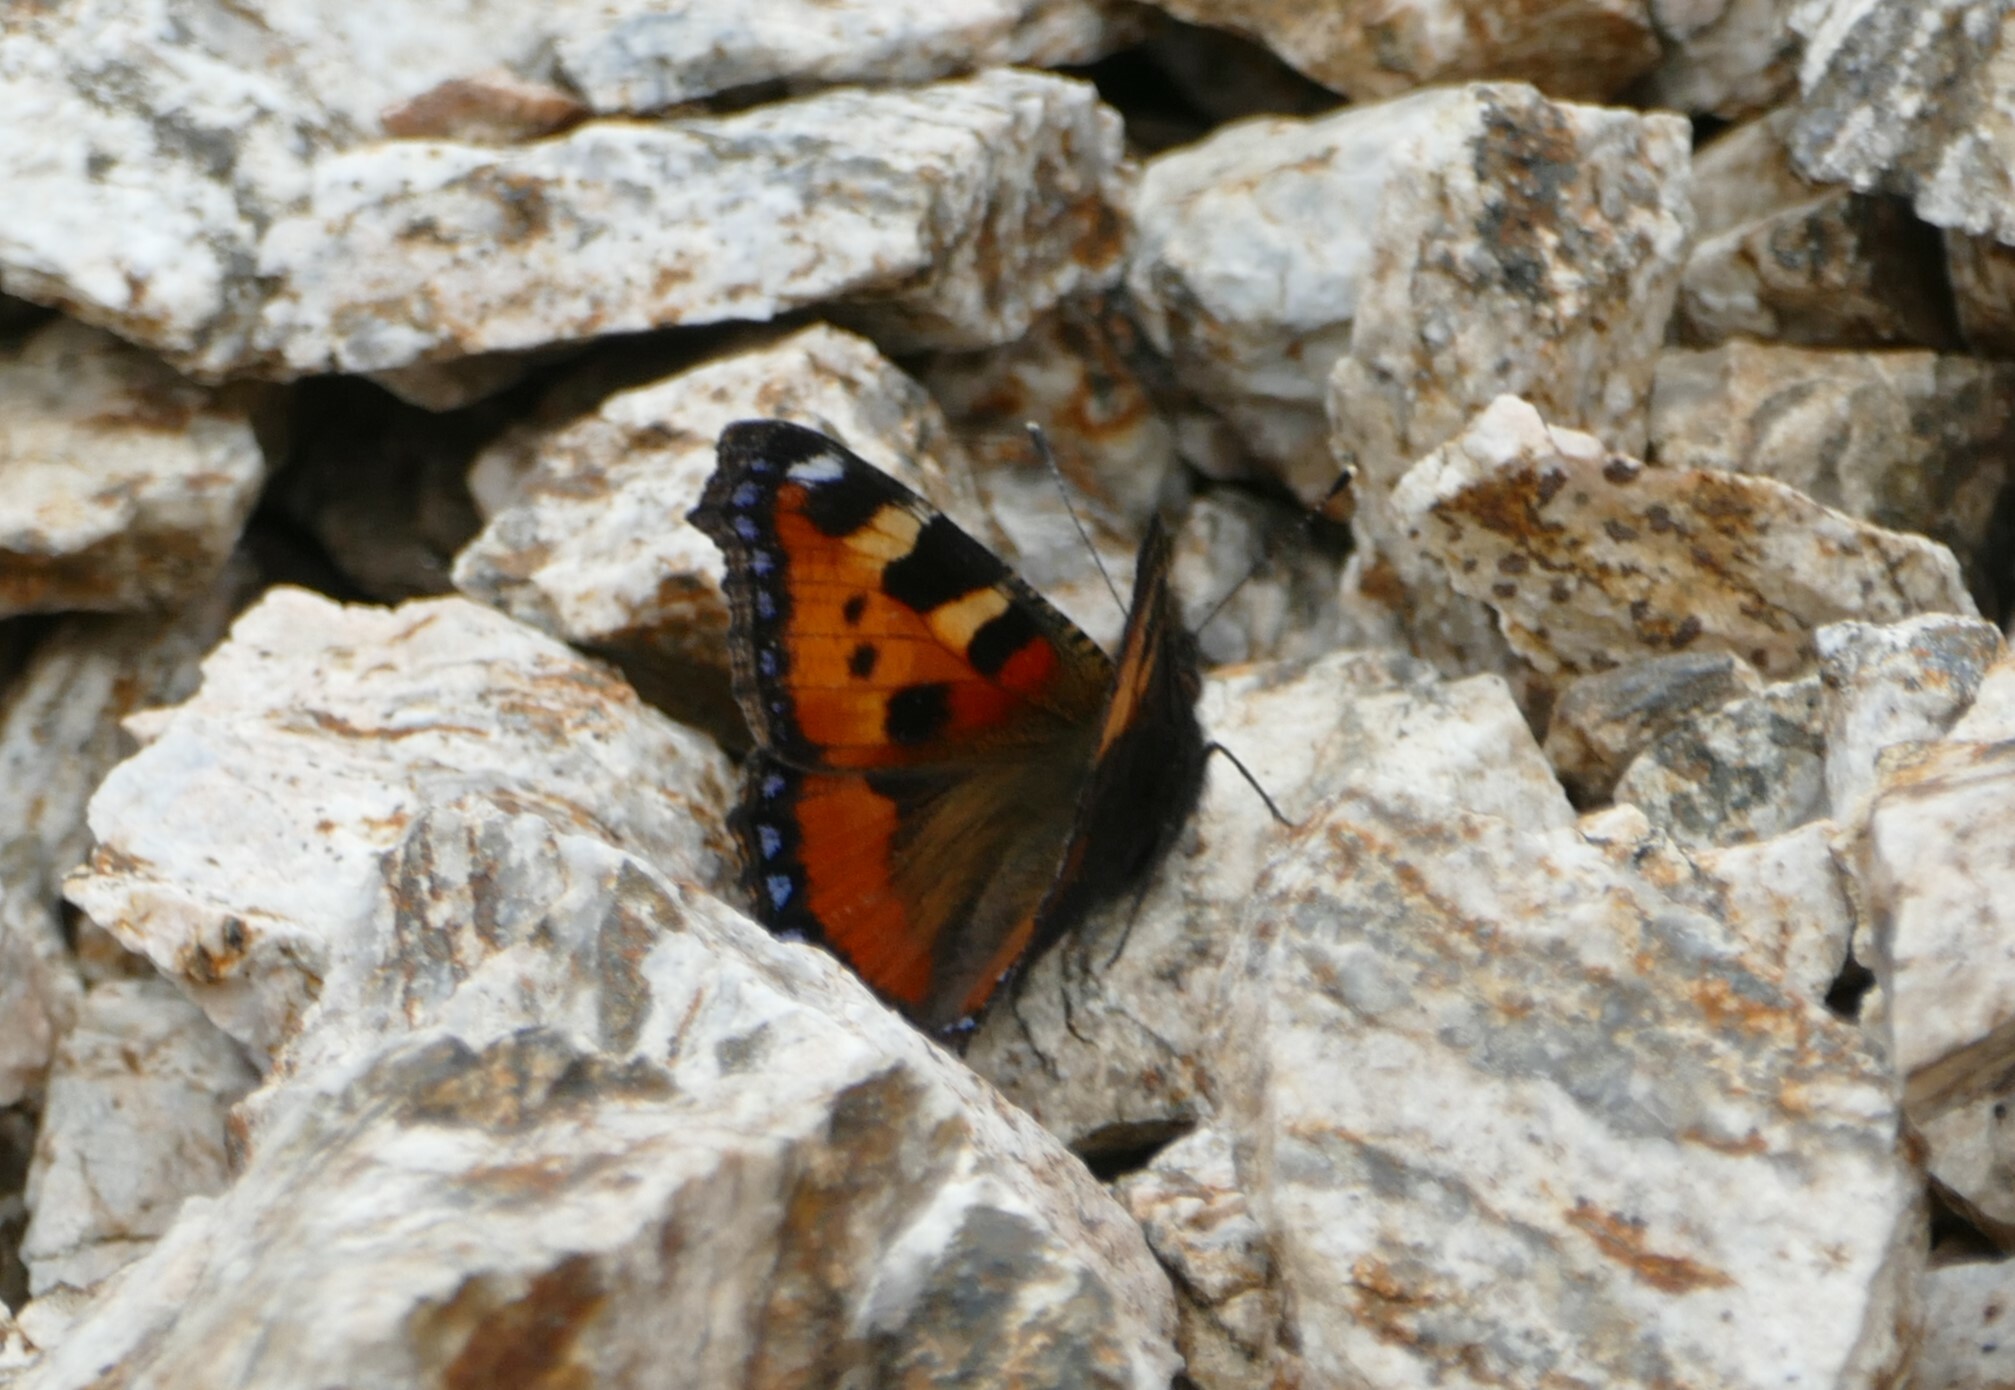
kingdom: Animalia
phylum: Arthropoda
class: Insecta
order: Lepidoptera
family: Nymphalidae
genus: Aglais
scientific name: Aglais urticae
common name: Small tortoiseshell
